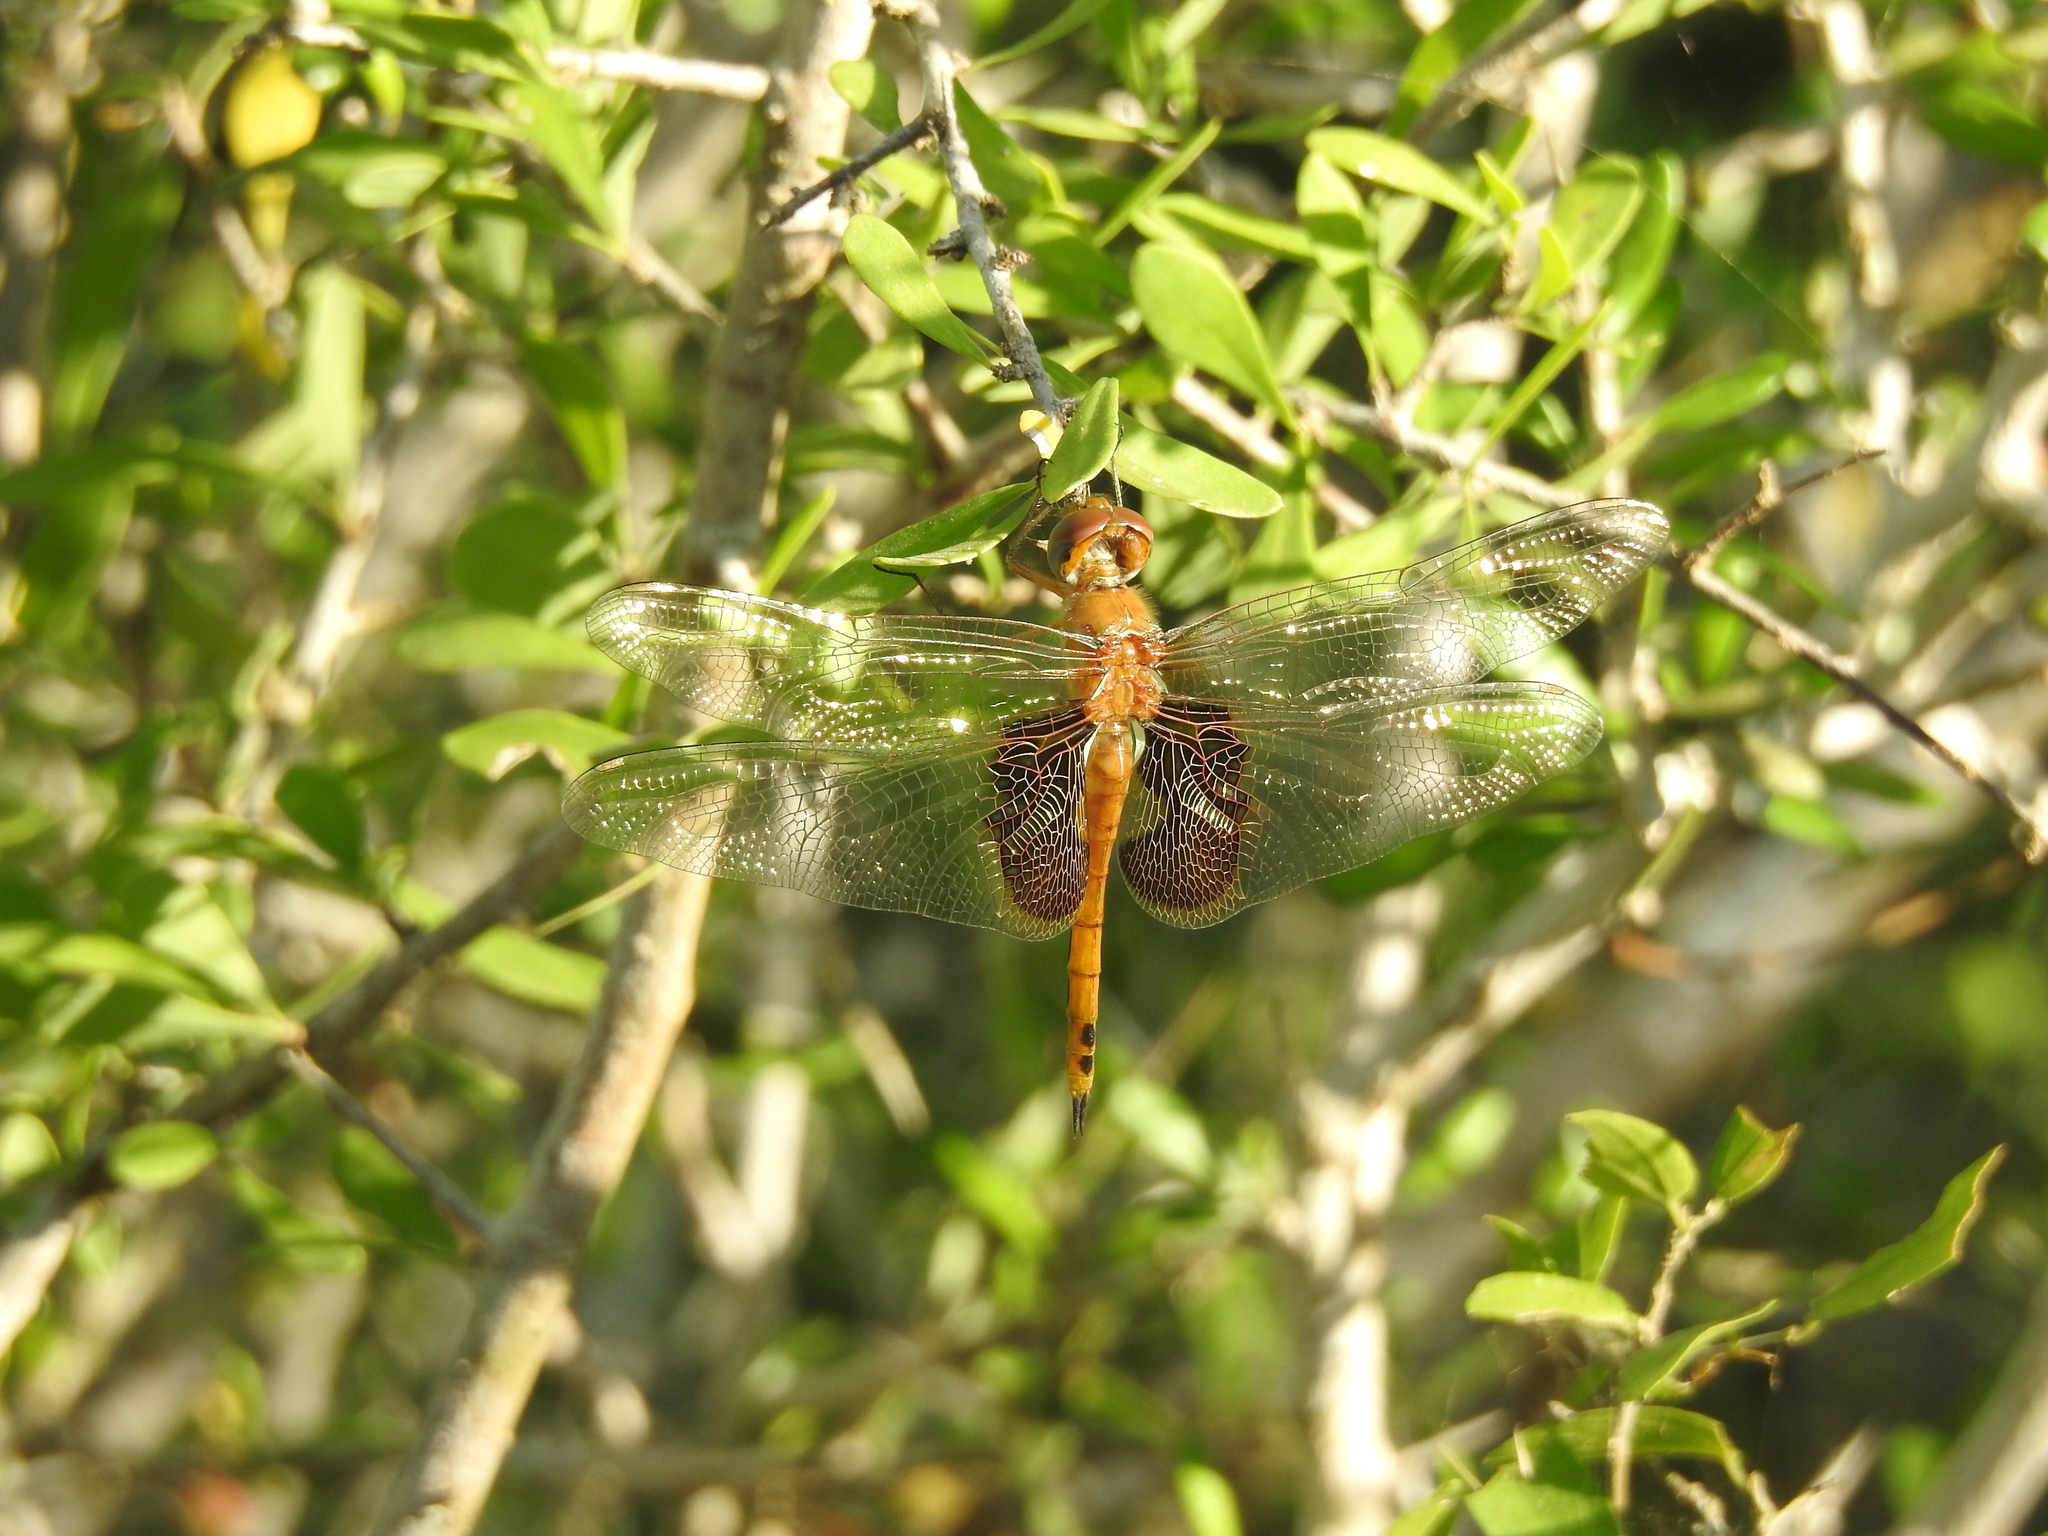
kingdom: Animalia
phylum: Arthropoda
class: Insecta
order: Odonata
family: Libellulidae
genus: Tramea
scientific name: Tramea onusta
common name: Red saddlebags
